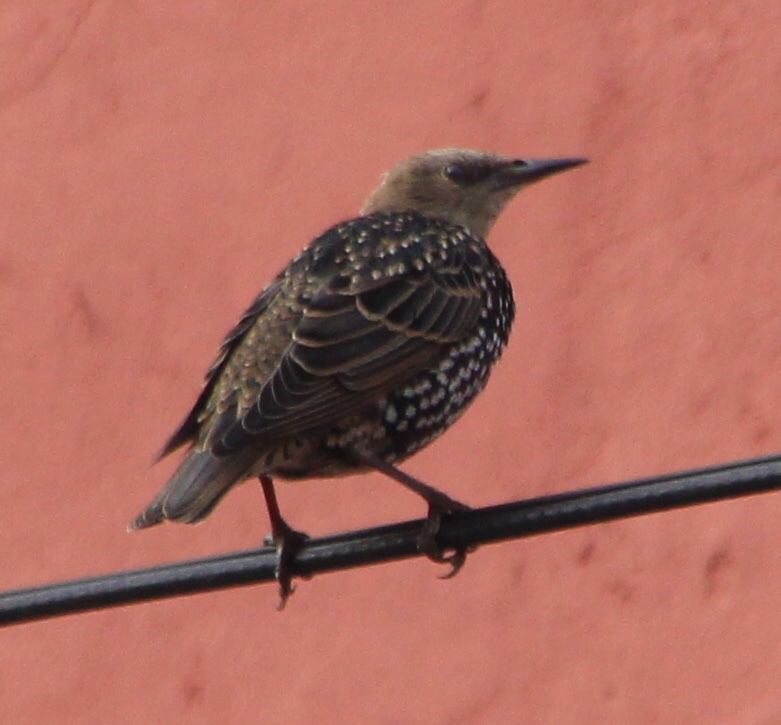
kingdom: Animalia
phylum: Chordata
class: Aves
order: Passeriformes
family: Sturnidae
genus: Sturnus
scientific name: Sturnus vulgaris
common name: Common starling
